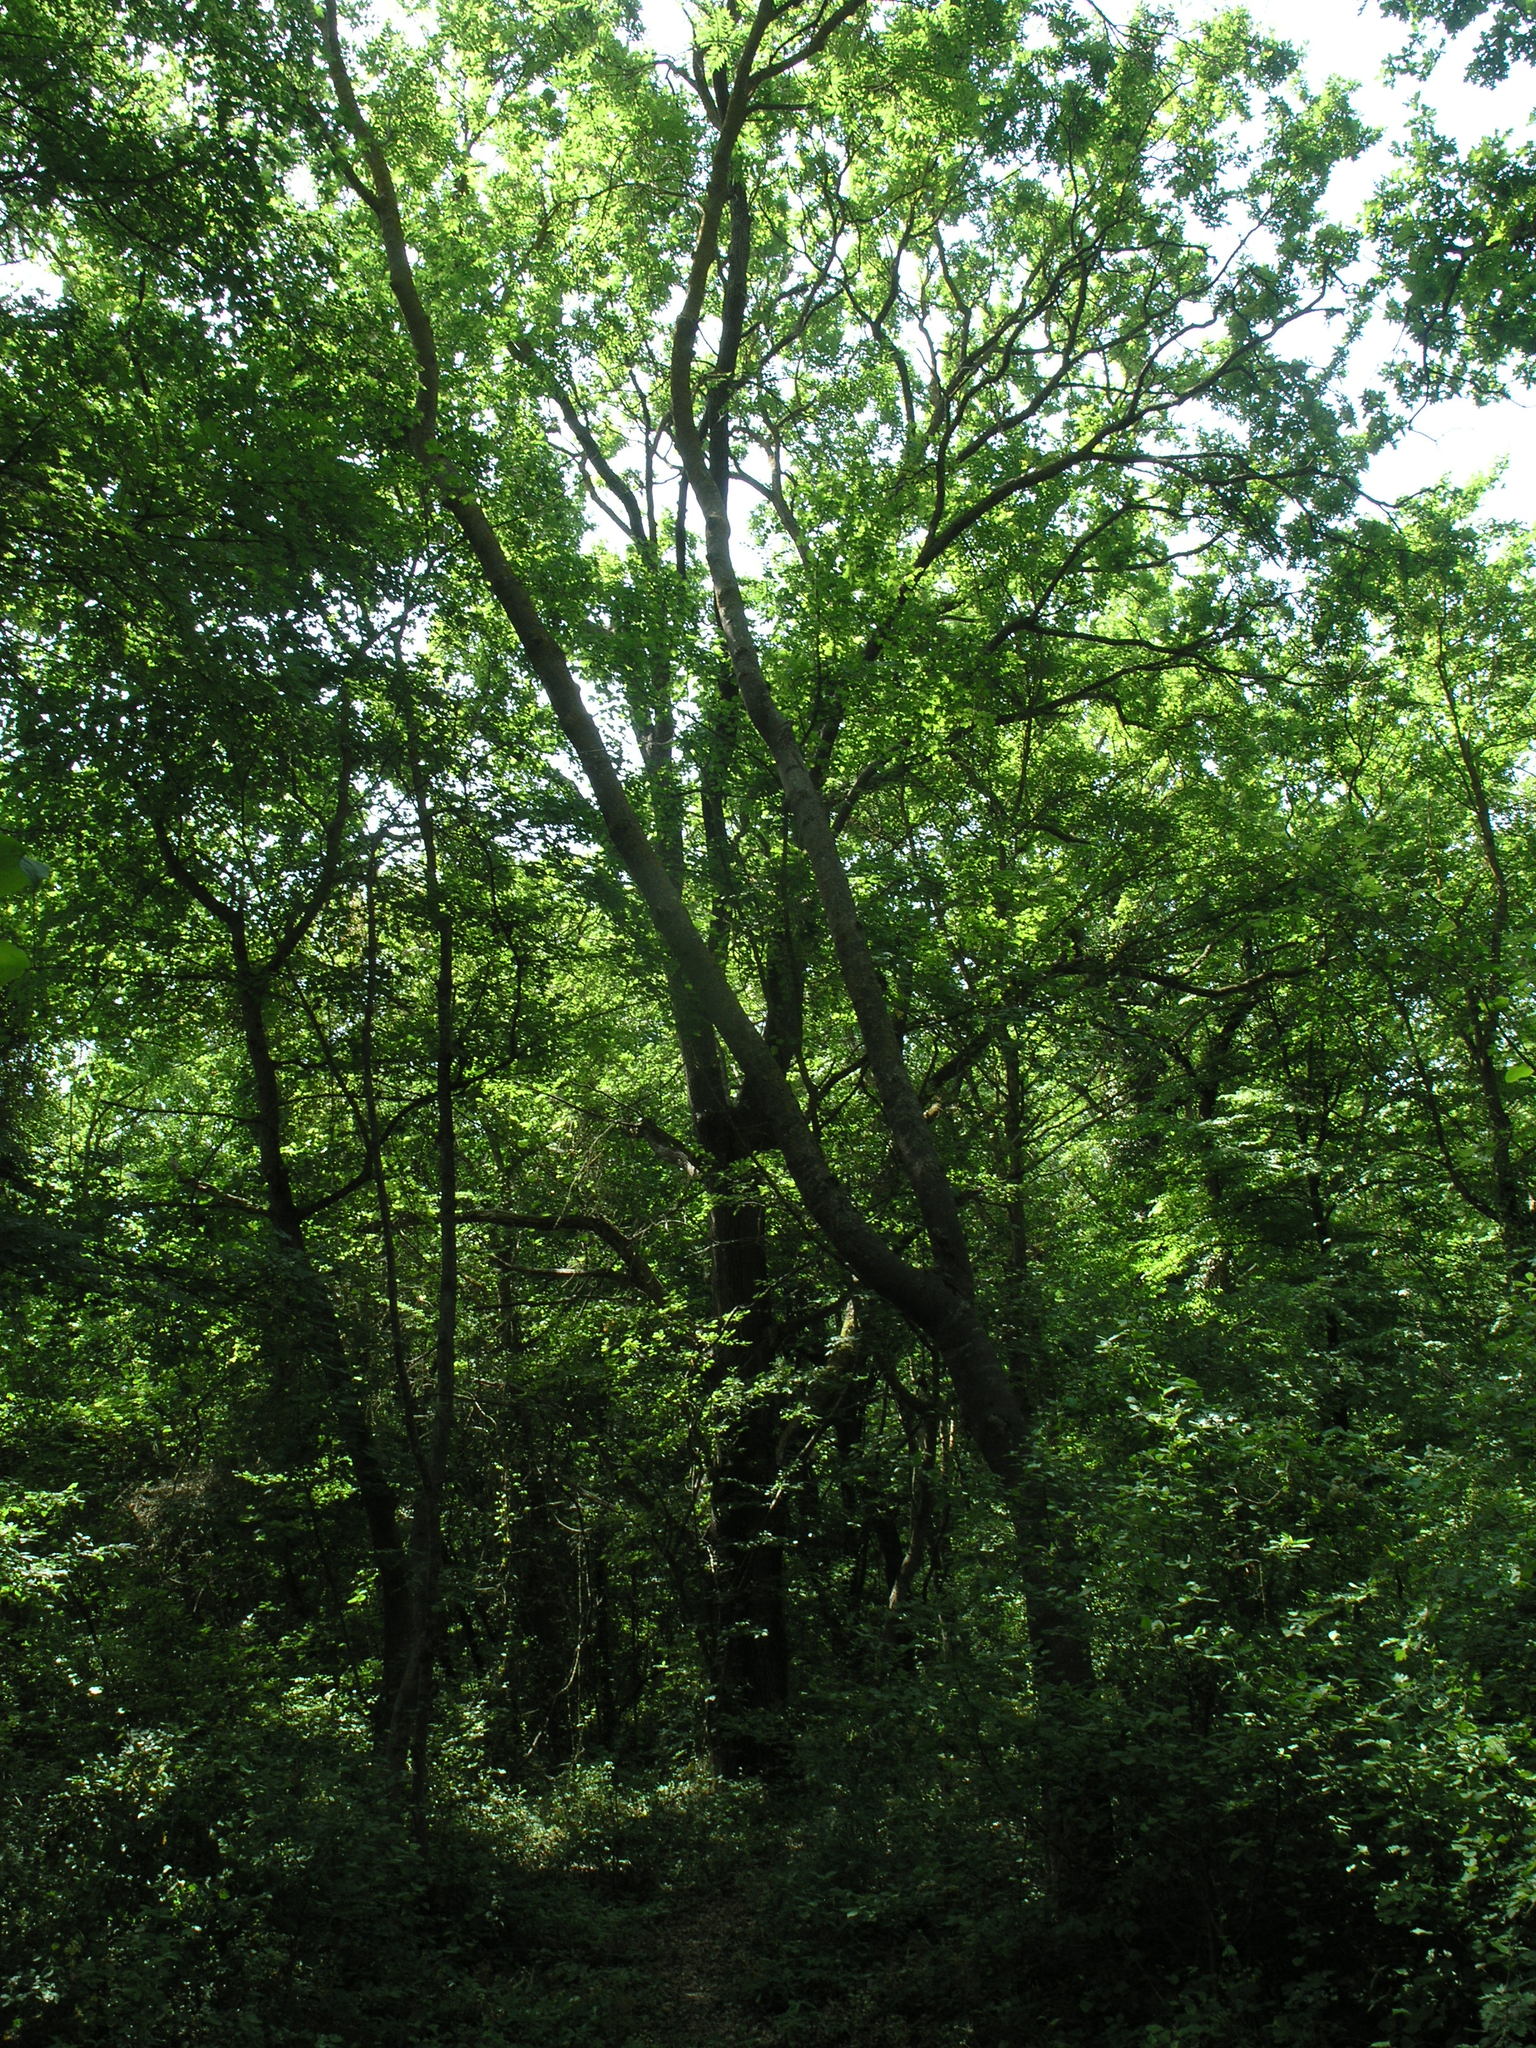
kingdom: Plantae
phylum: Tracheophyta
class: Magnoliopsida
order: Fagales
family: Betulaceae
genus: Carpinus
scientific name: Carpinus betulus
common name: Hornbeam
